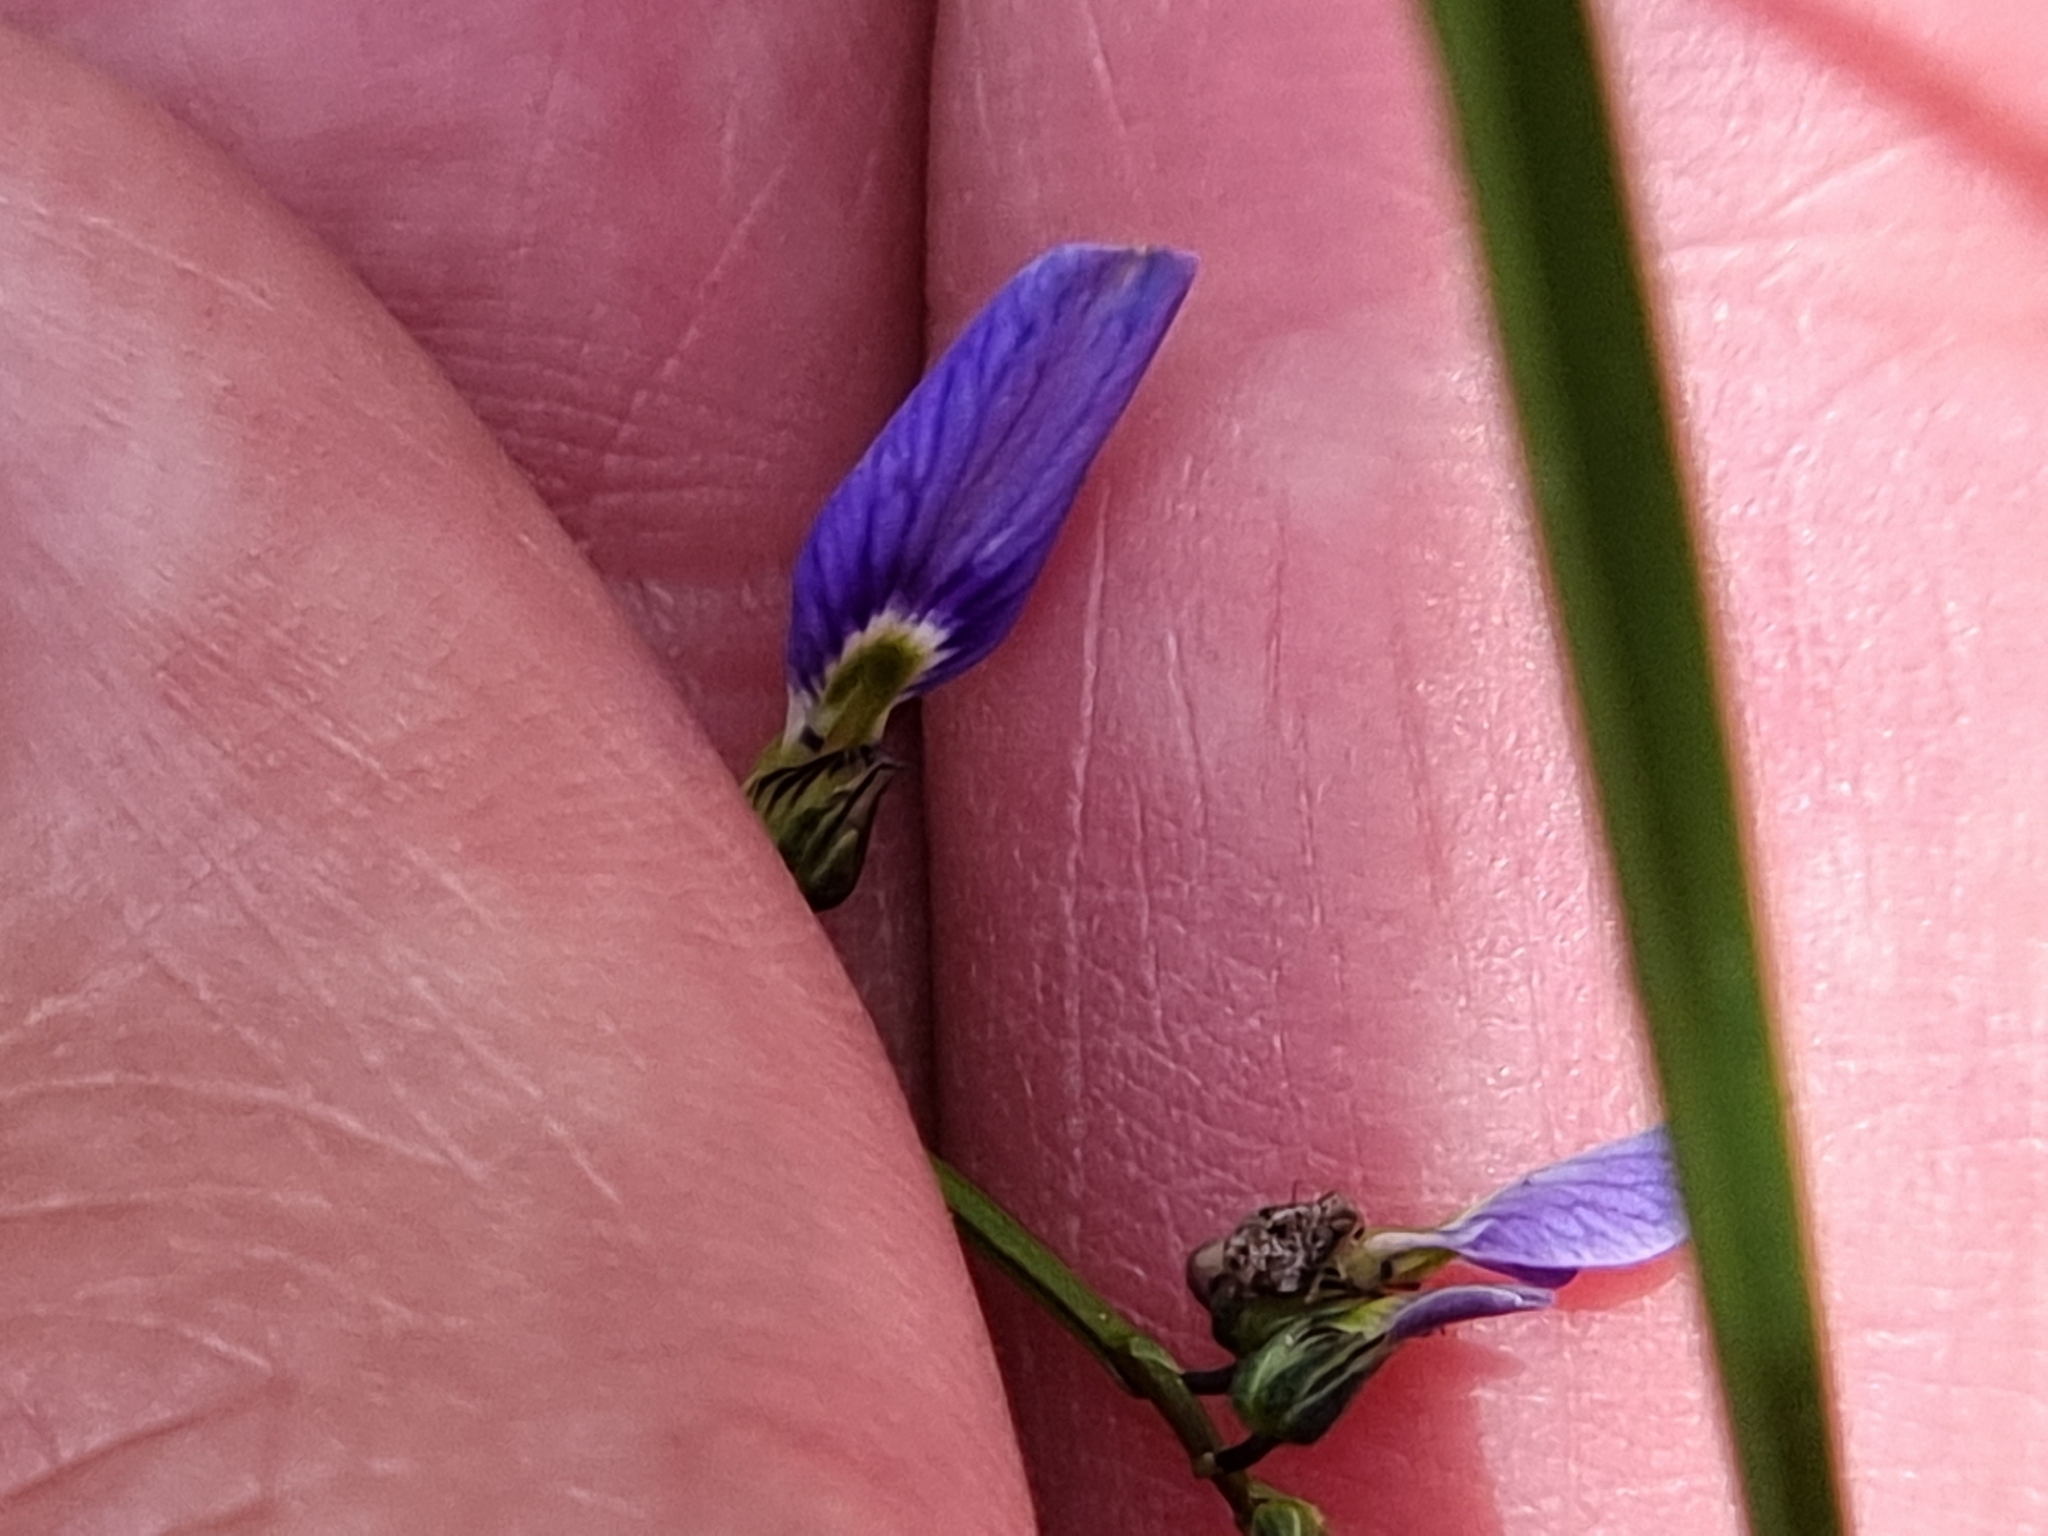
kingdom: Plantae
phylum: Tracheophyta
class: Magnoliopsida
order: Malpighiales
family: Violaceae
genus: Pigea
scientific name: Pigea monopetala
